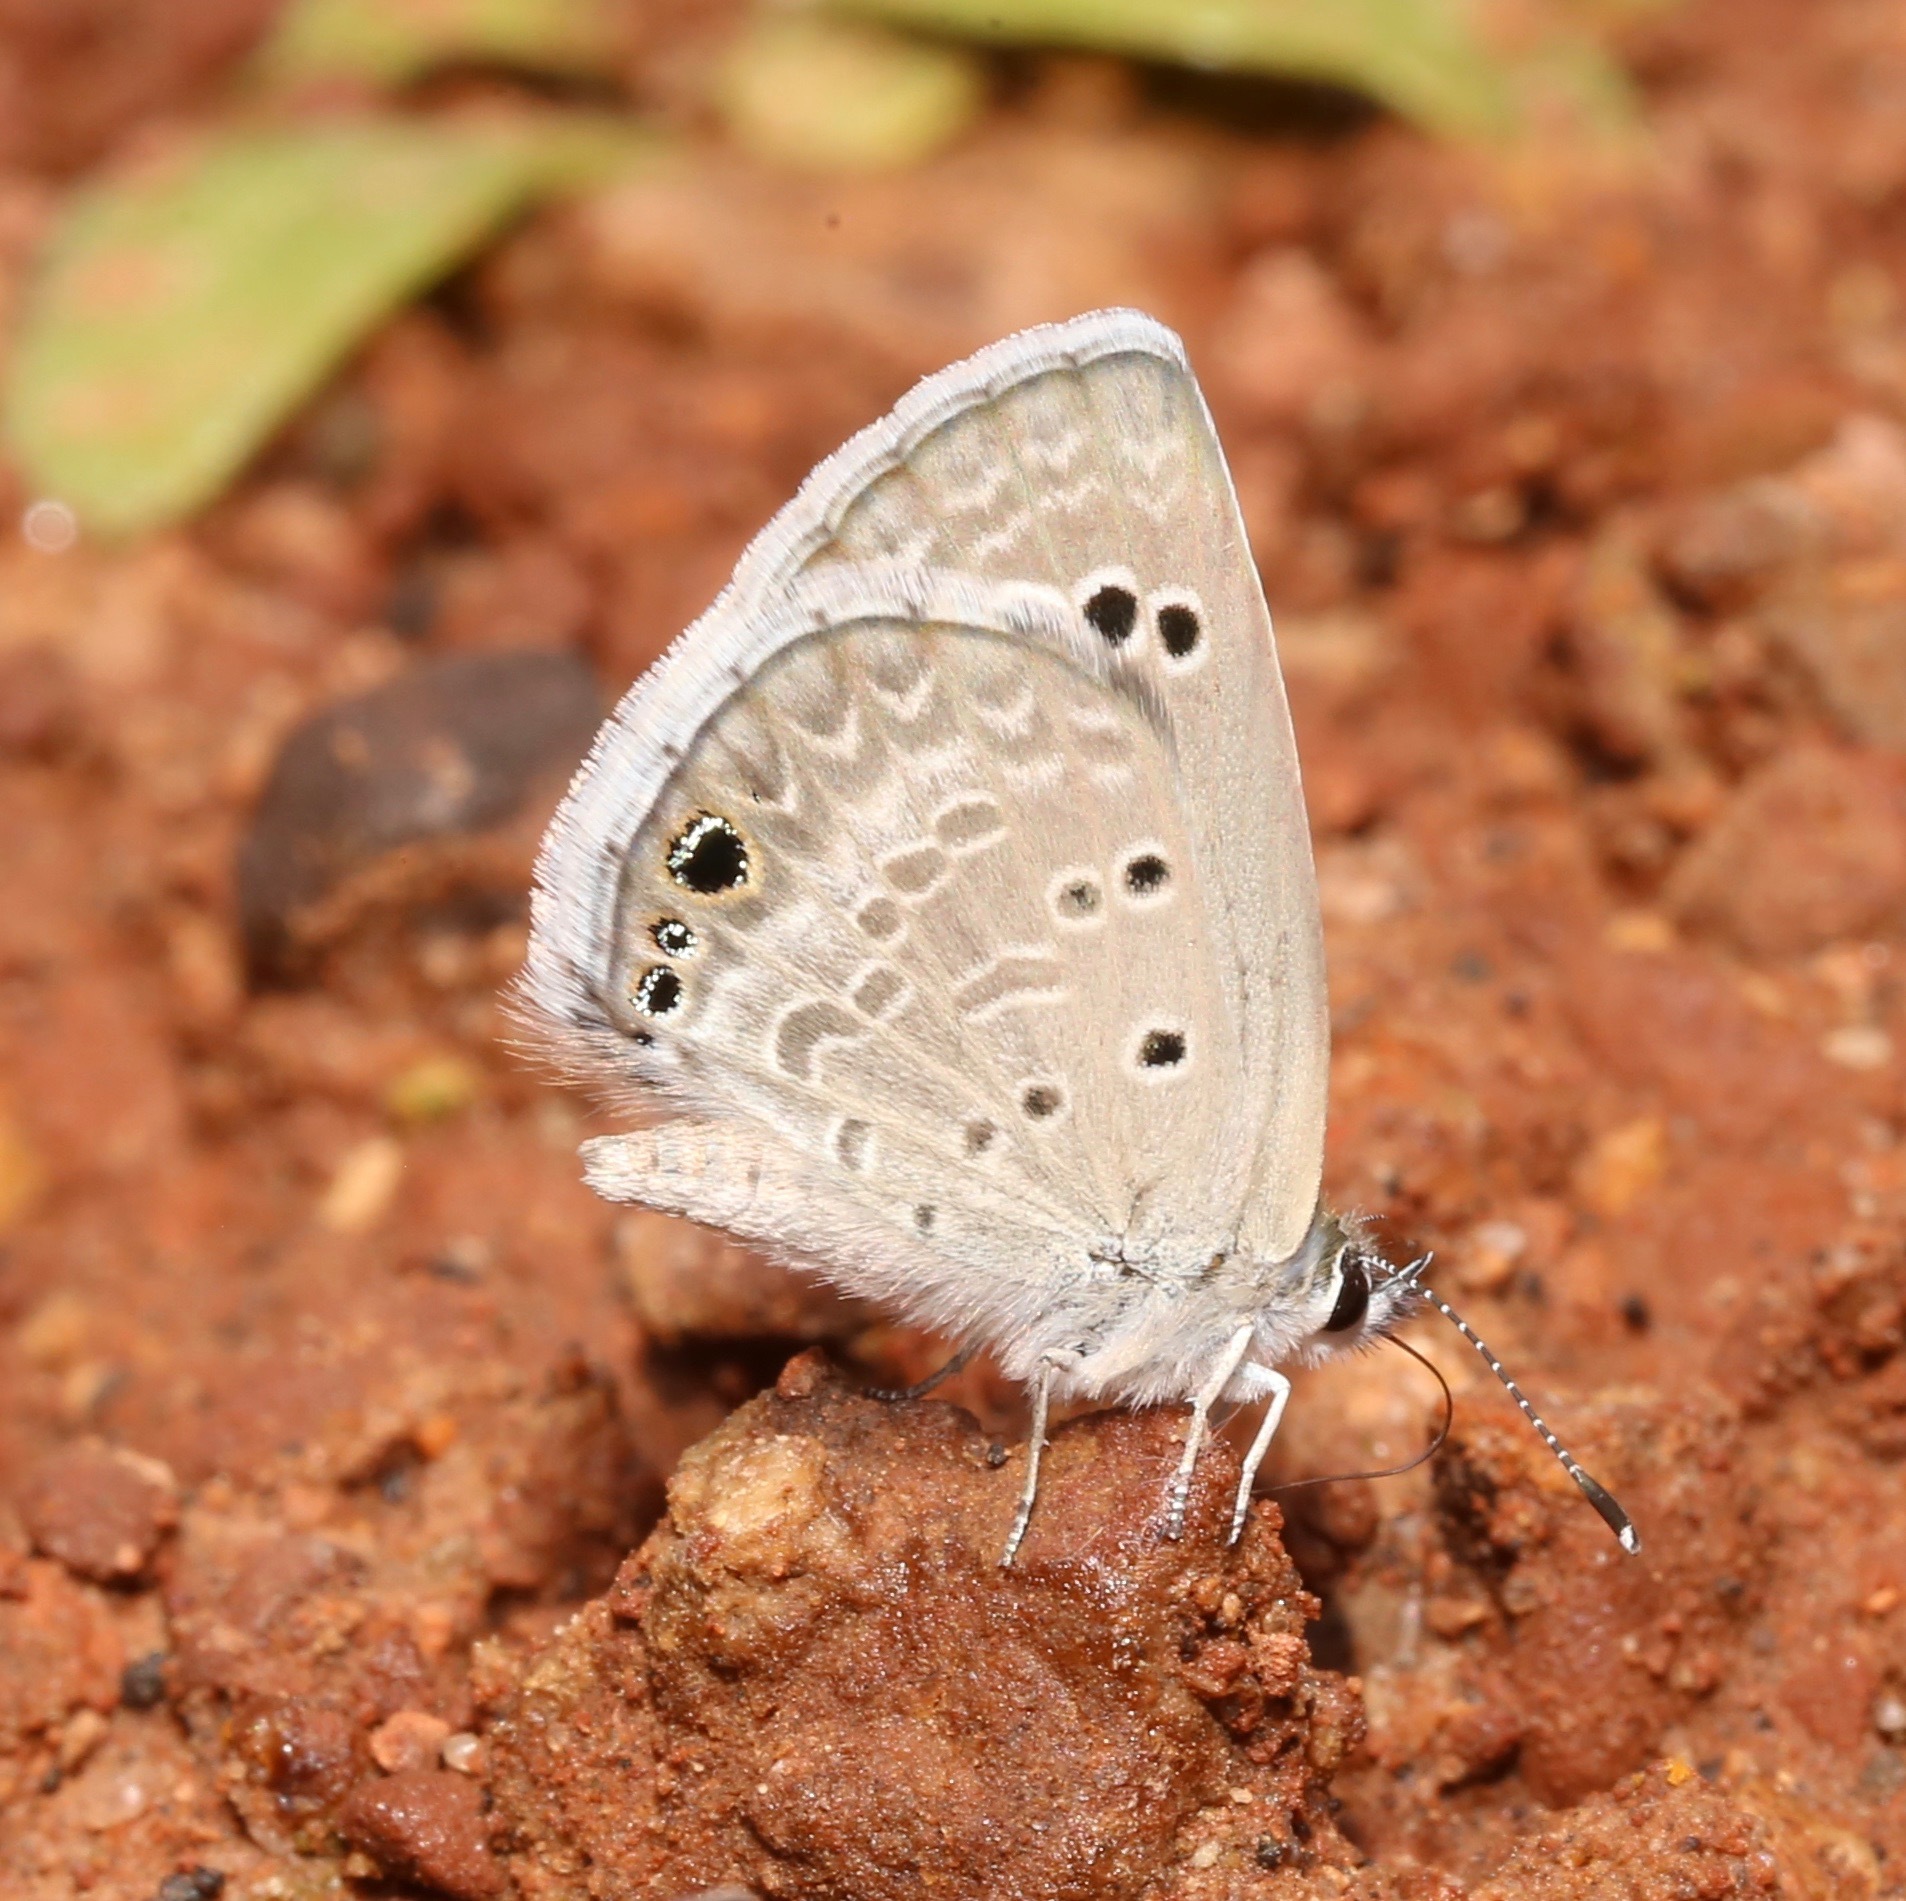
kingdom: Animalia
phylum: Arthropoda
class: Insecta
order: Lepidoptera
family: Lycaenidae
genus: Echinargus
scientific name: Echinargus isola
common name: Reakirt's blue
